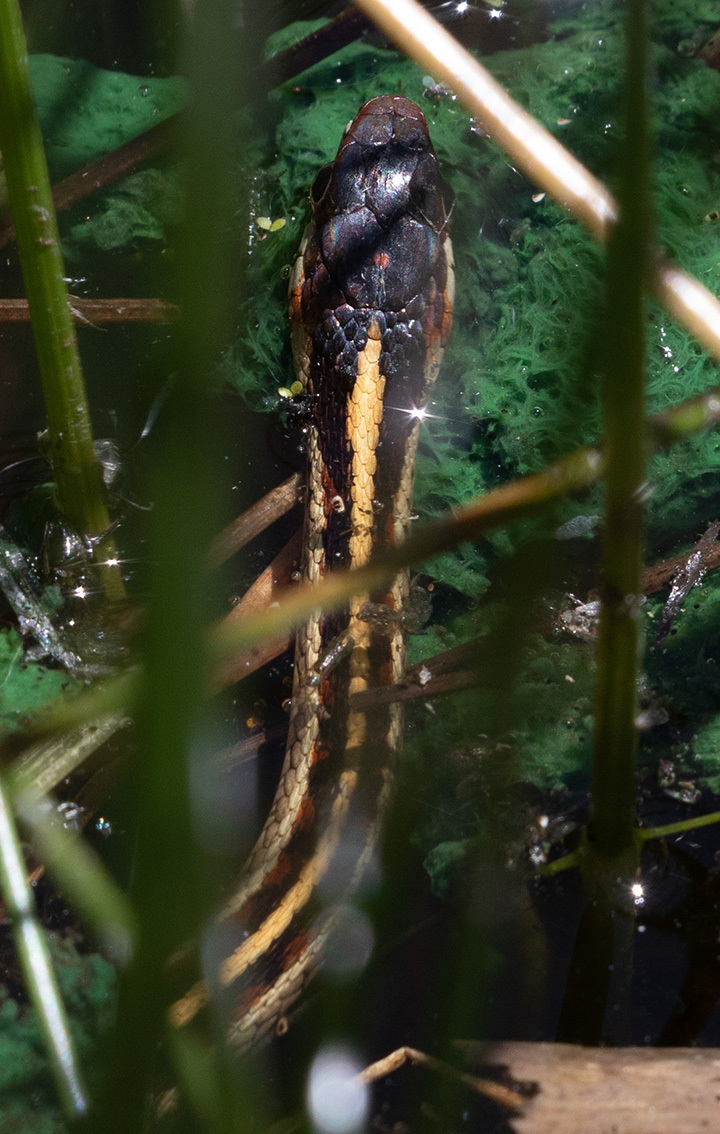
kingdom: Animalia
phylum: Chordata
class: Squamata
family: Colubridae
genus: Thamnophis
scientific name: Thamnophis sirtalis
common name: Common garter snake
